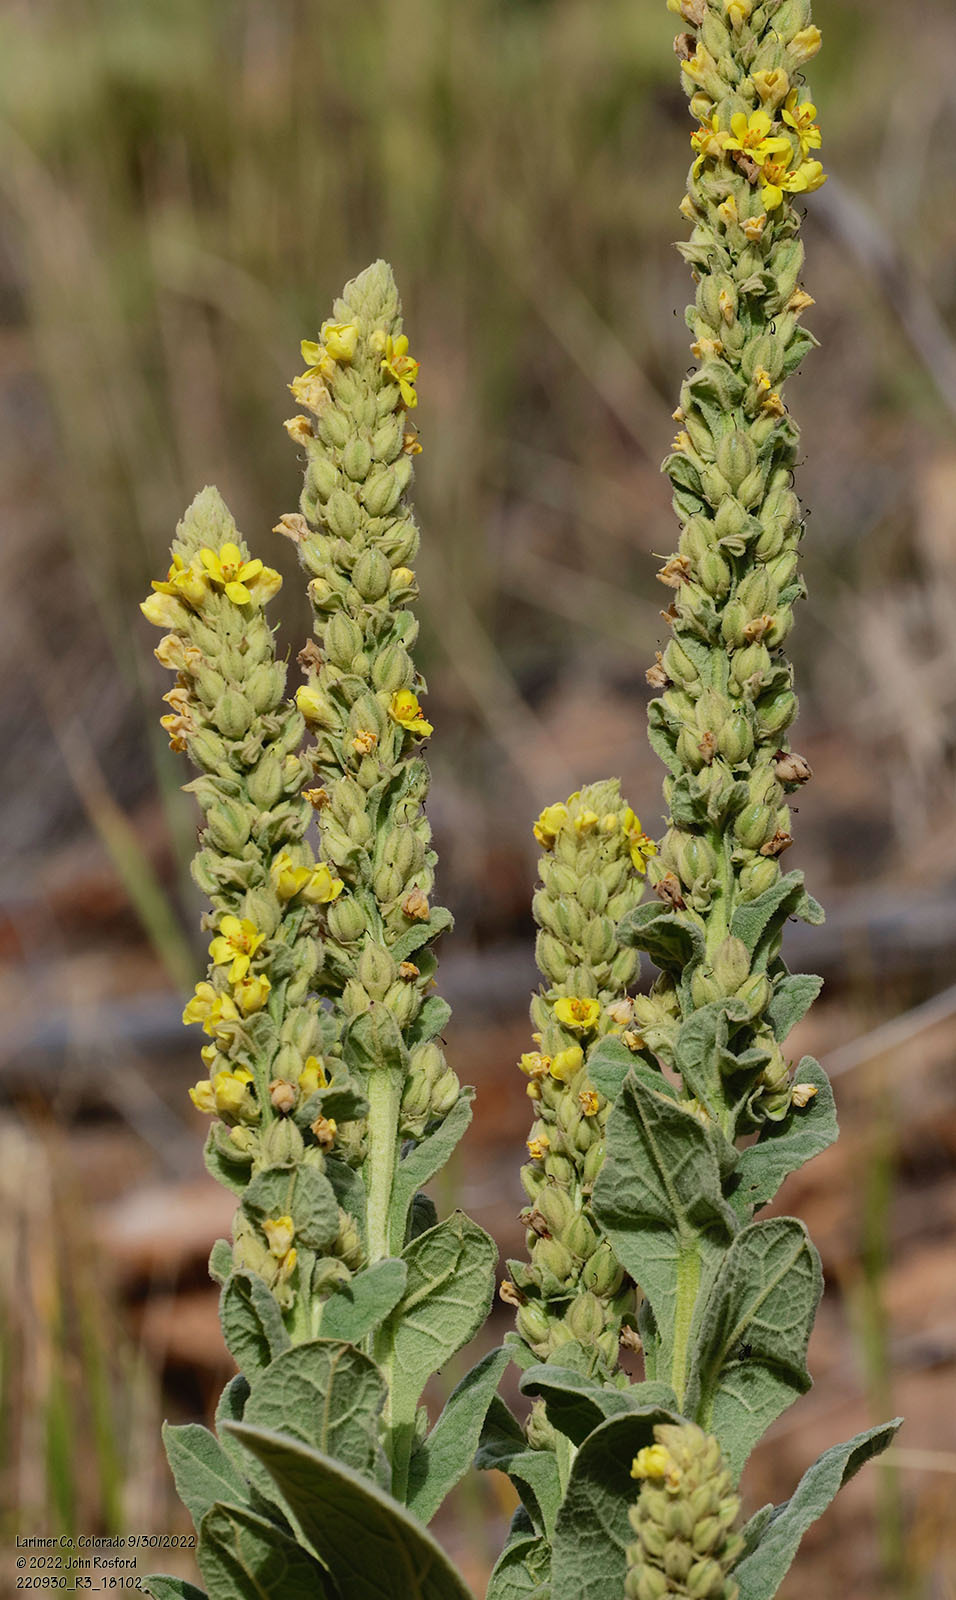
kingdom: Plantae
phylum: Tracheophyta
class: Magnoliopsida
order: Lamiales
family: Scrophulariaceae
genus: Verbascum
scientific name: Verbascum thapsus
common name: Common mullein
